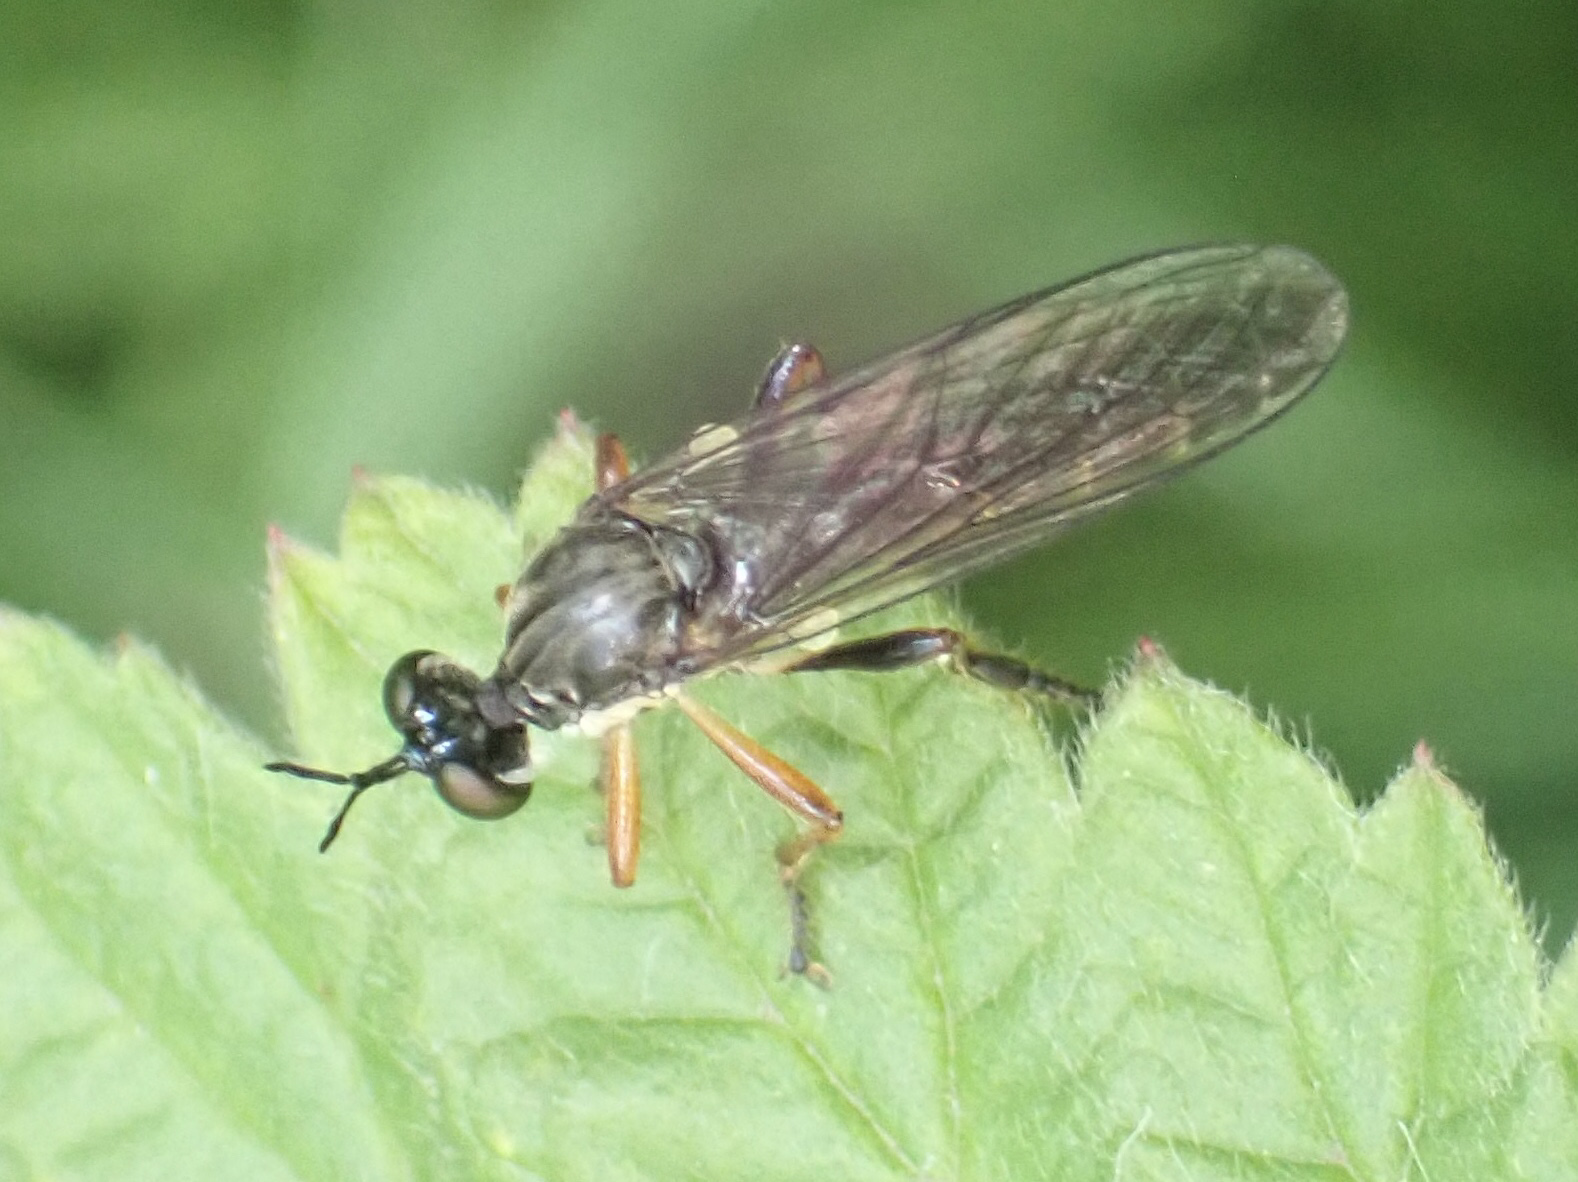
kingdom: Animalia
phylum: Arthropoda
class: Insecta
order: Diptera
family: Asilidae
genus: Dioctria
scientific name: Dioctria hyalipennis
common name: Stripe-legged robberfly
